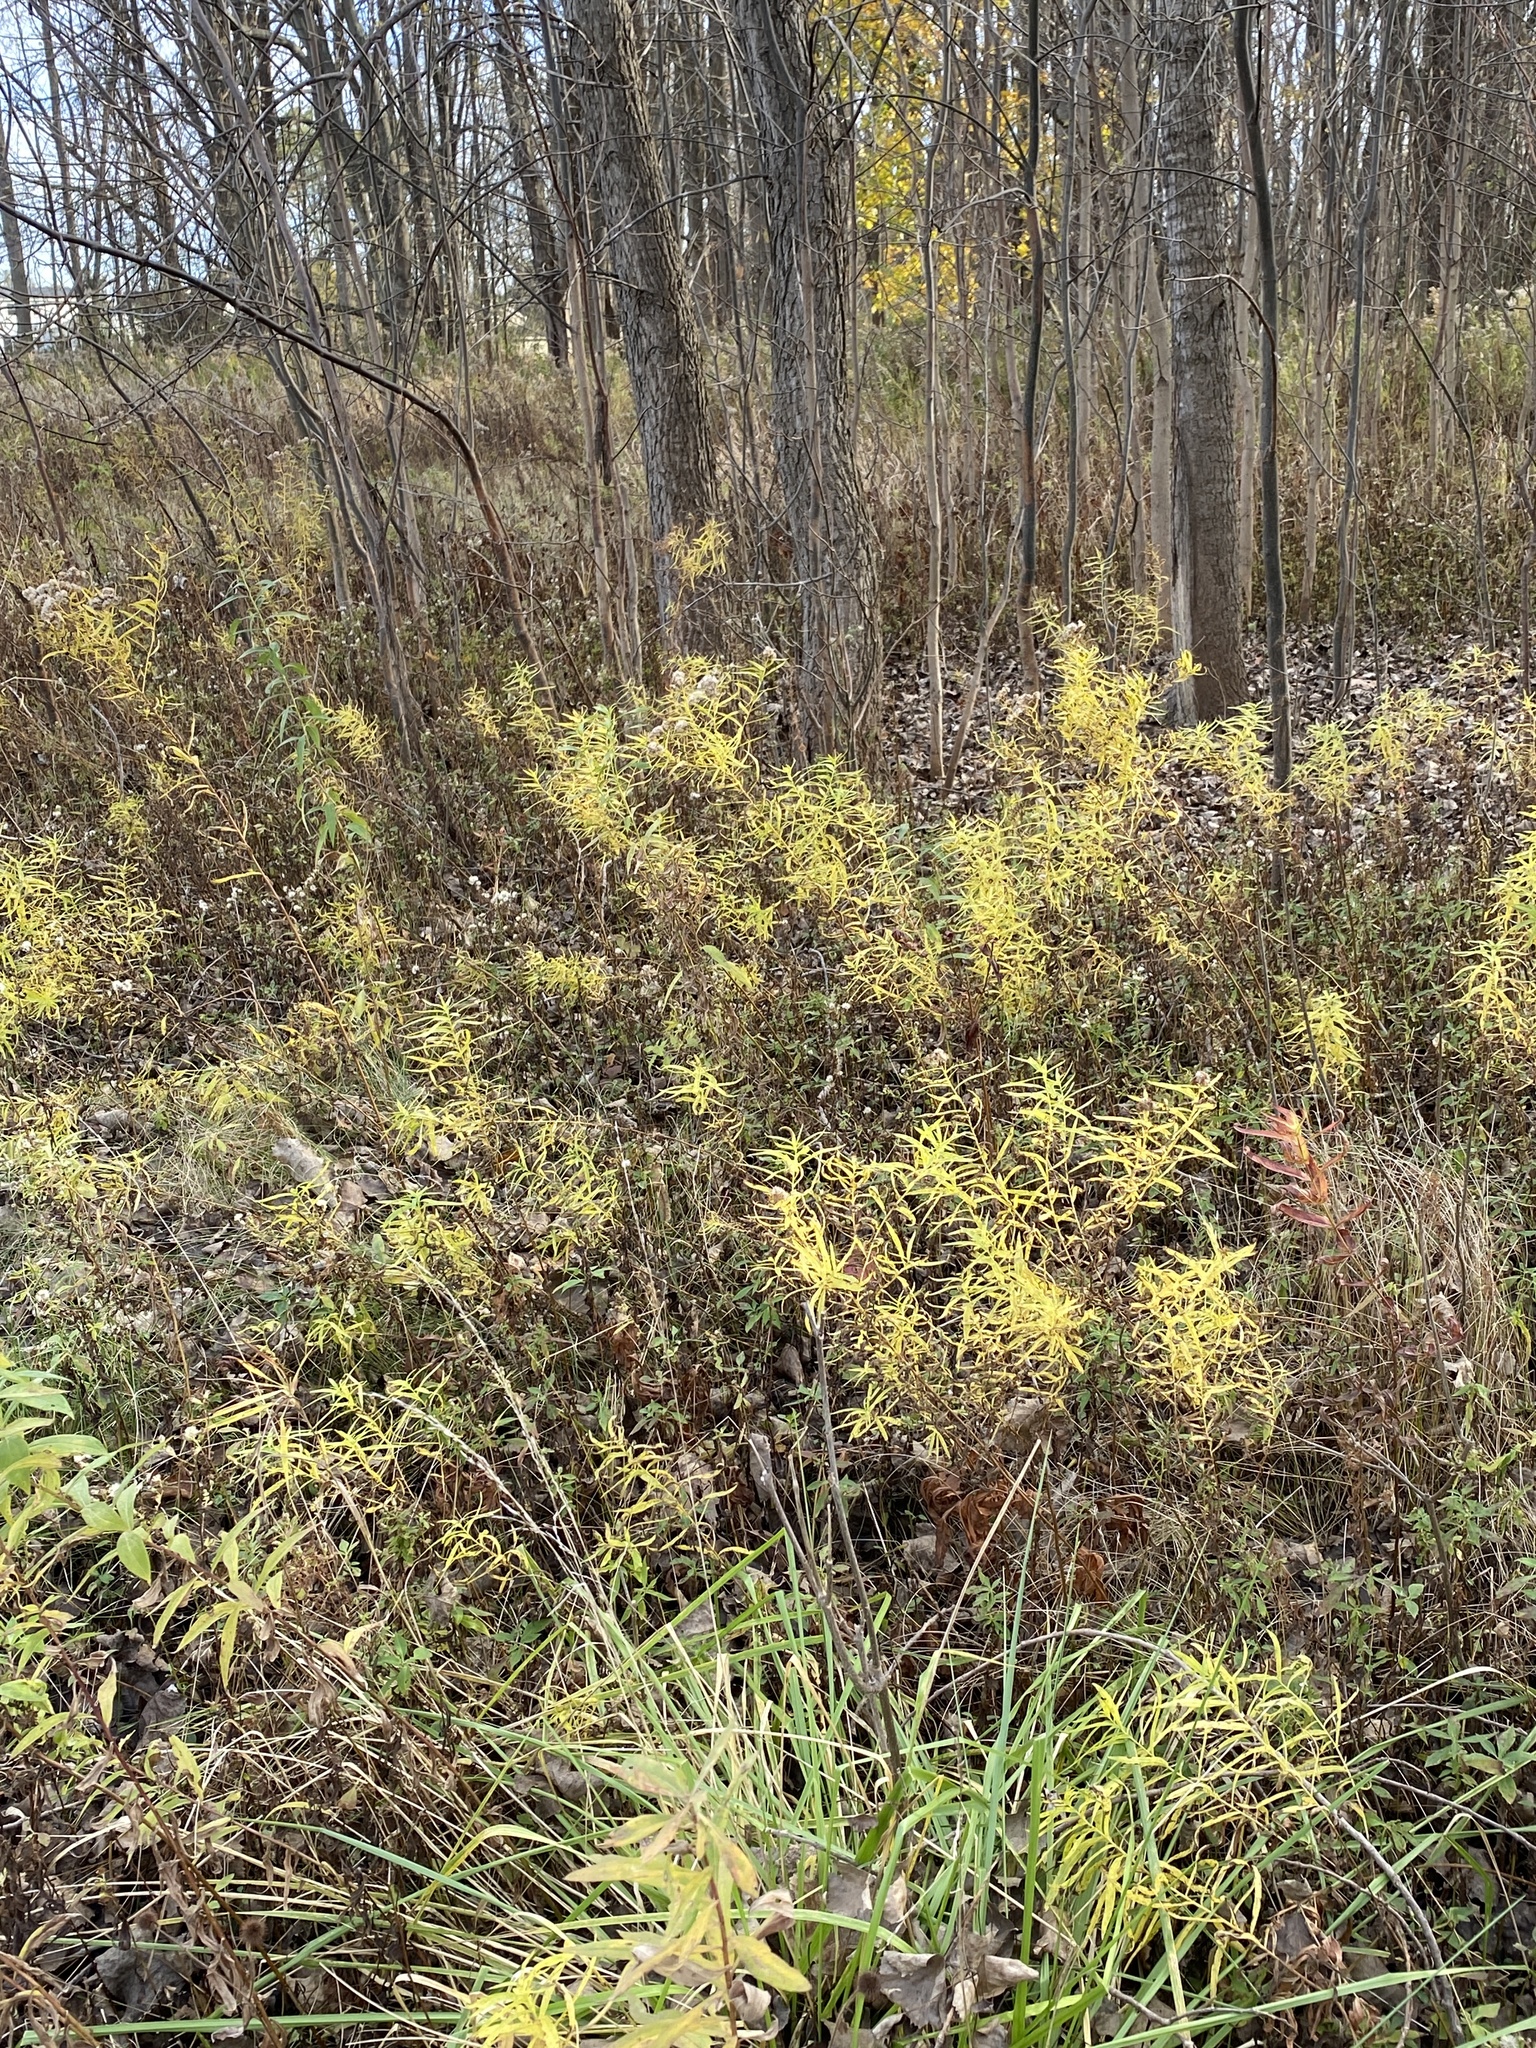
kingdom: Plantae
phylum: Tracheophyta
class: Magnoliopsida
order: Asterales
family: Asteraceae
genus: Euthamia
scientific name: Euthamia graminifolia
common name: Common goldentop
